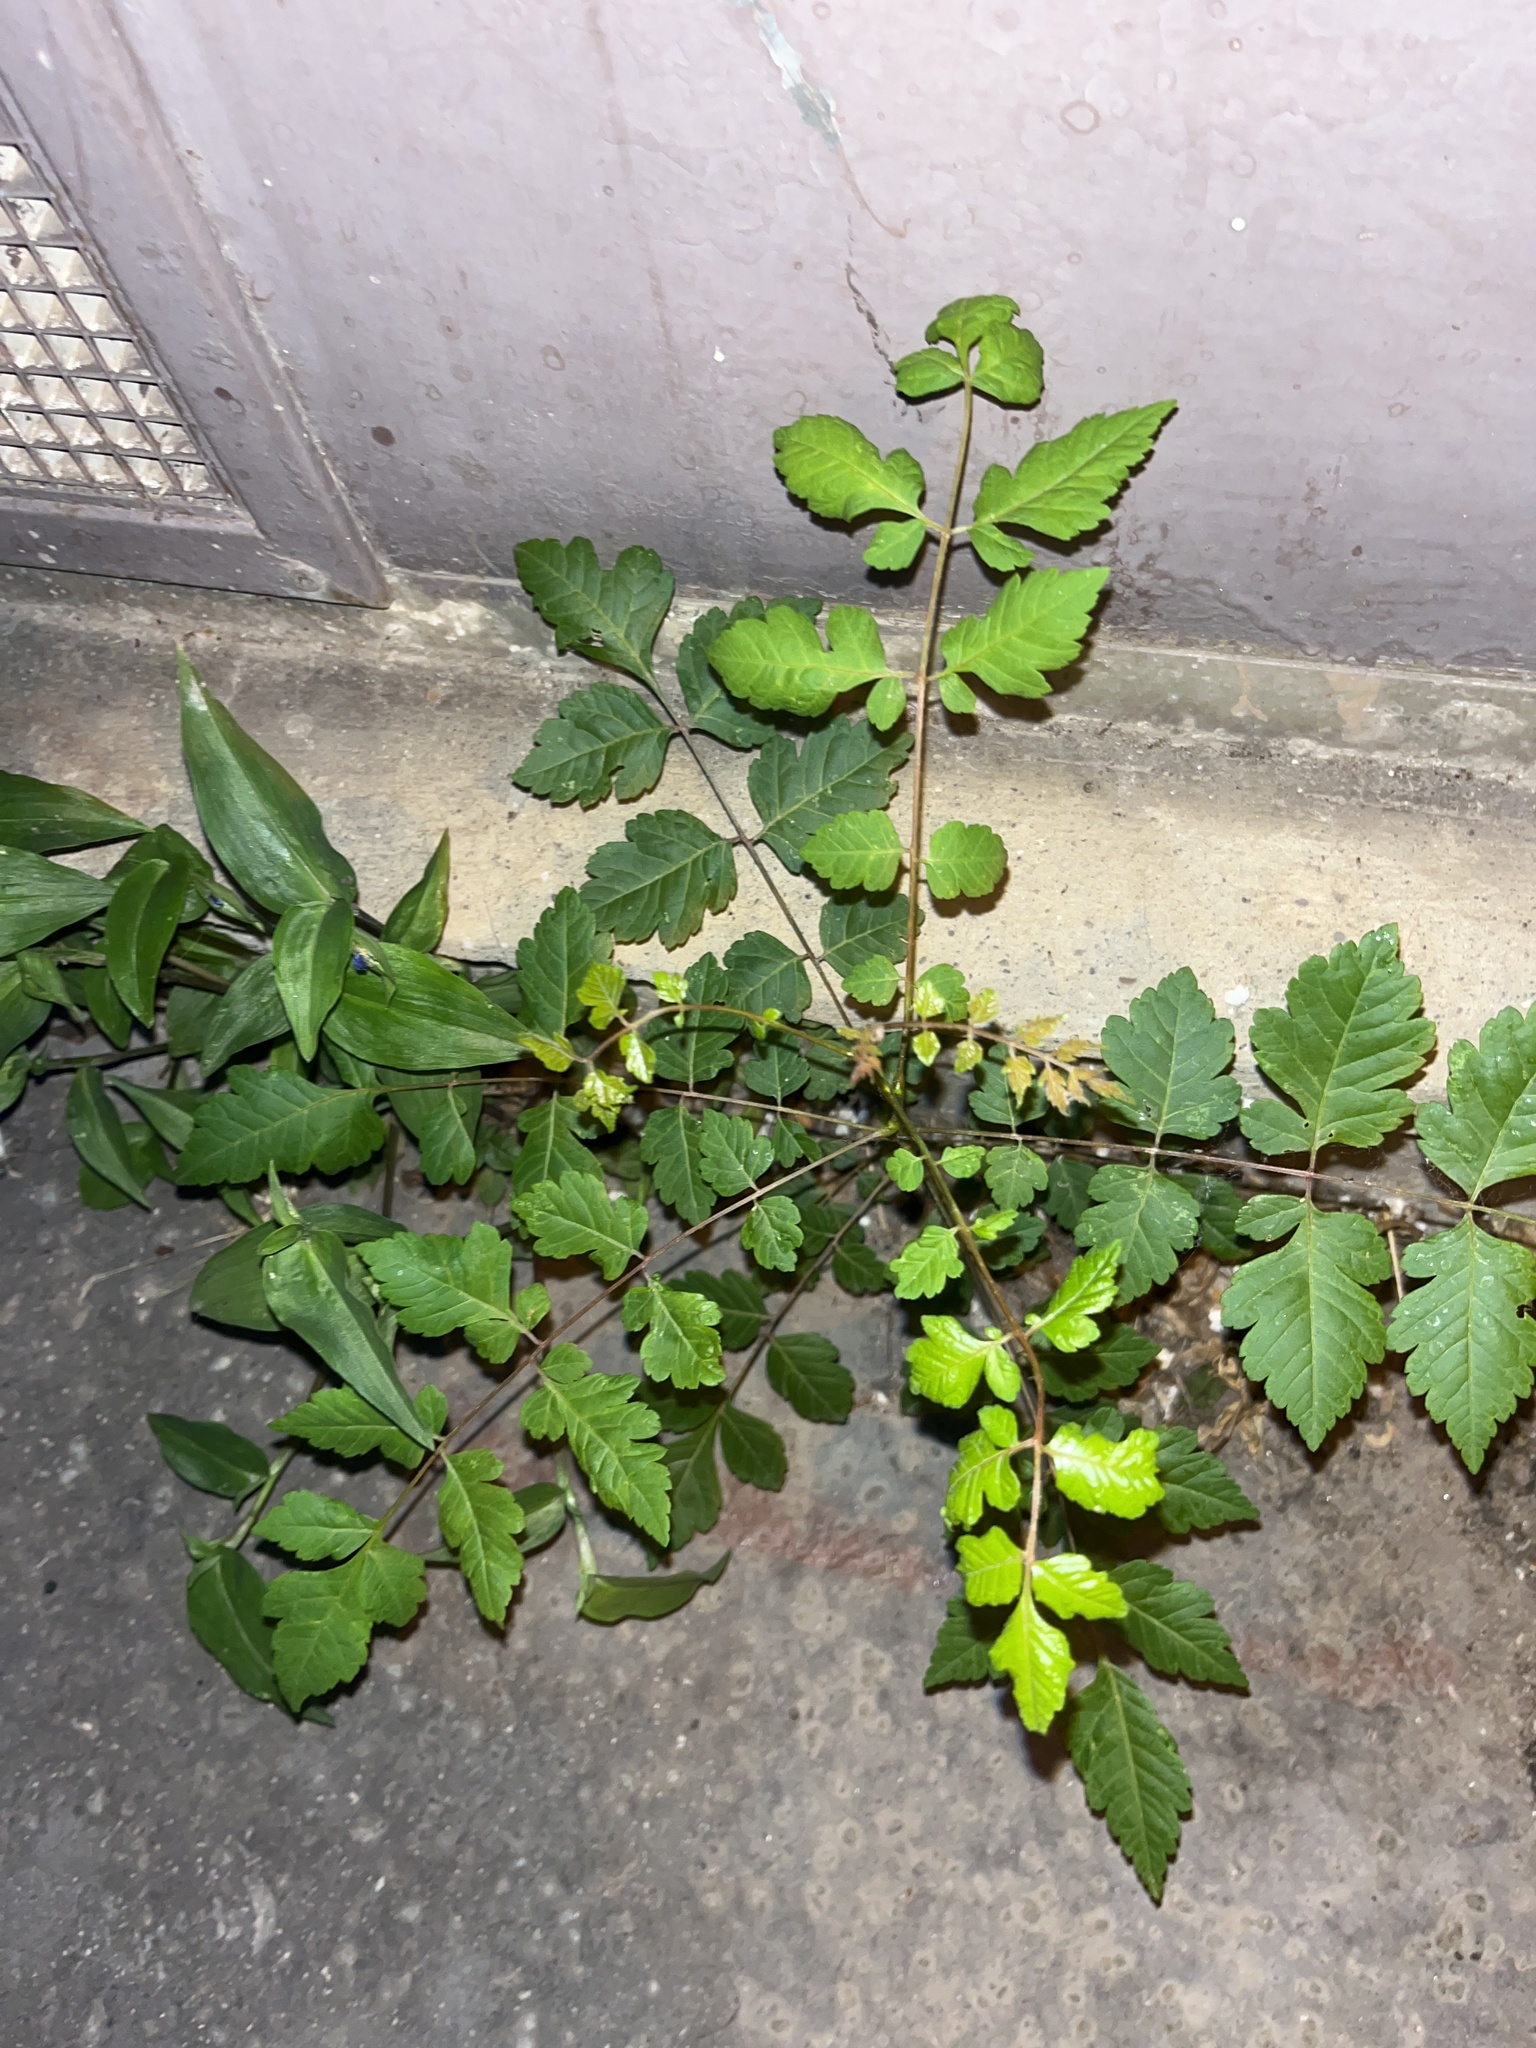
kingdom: Plantae
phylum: Tracheophyta
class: Magnoliopsida
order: Sapindales
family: Sapindaceae
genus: Koelreuteria
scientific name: Koelreuteria paniculata
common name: Pride-of-india
